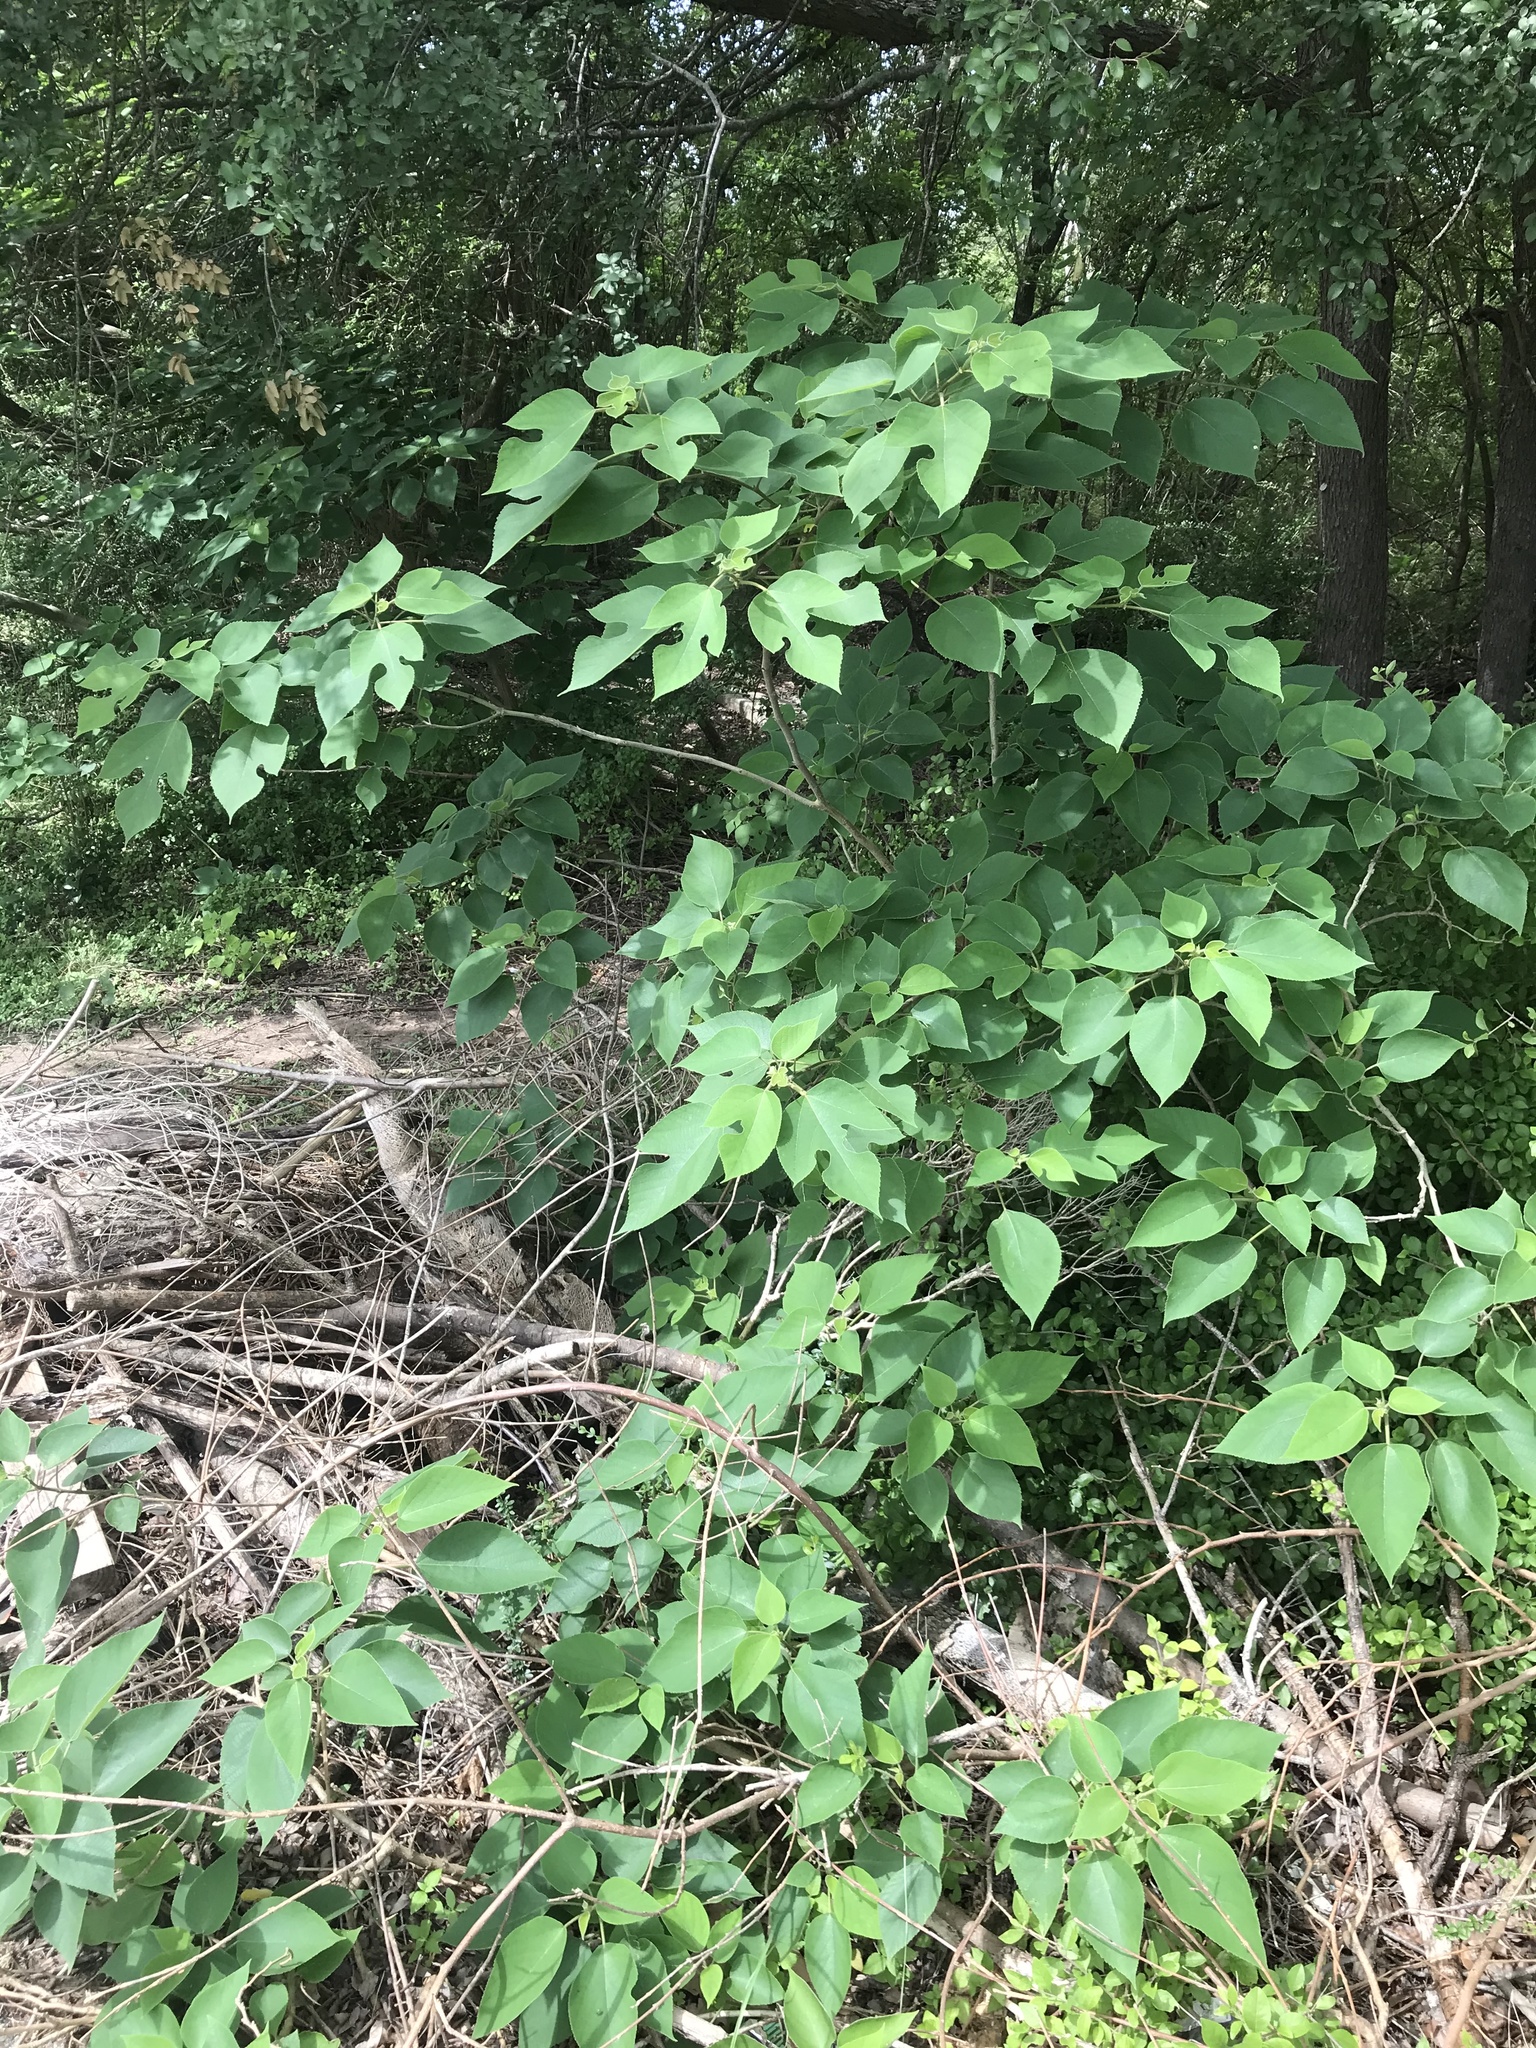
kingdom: Plantae
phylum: Tracheophyta
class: Magnoliopsida
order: Rosales
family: Moraceae
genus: Broussonetia
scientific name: Broussonetia papyrifera
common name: Paper mulberry
